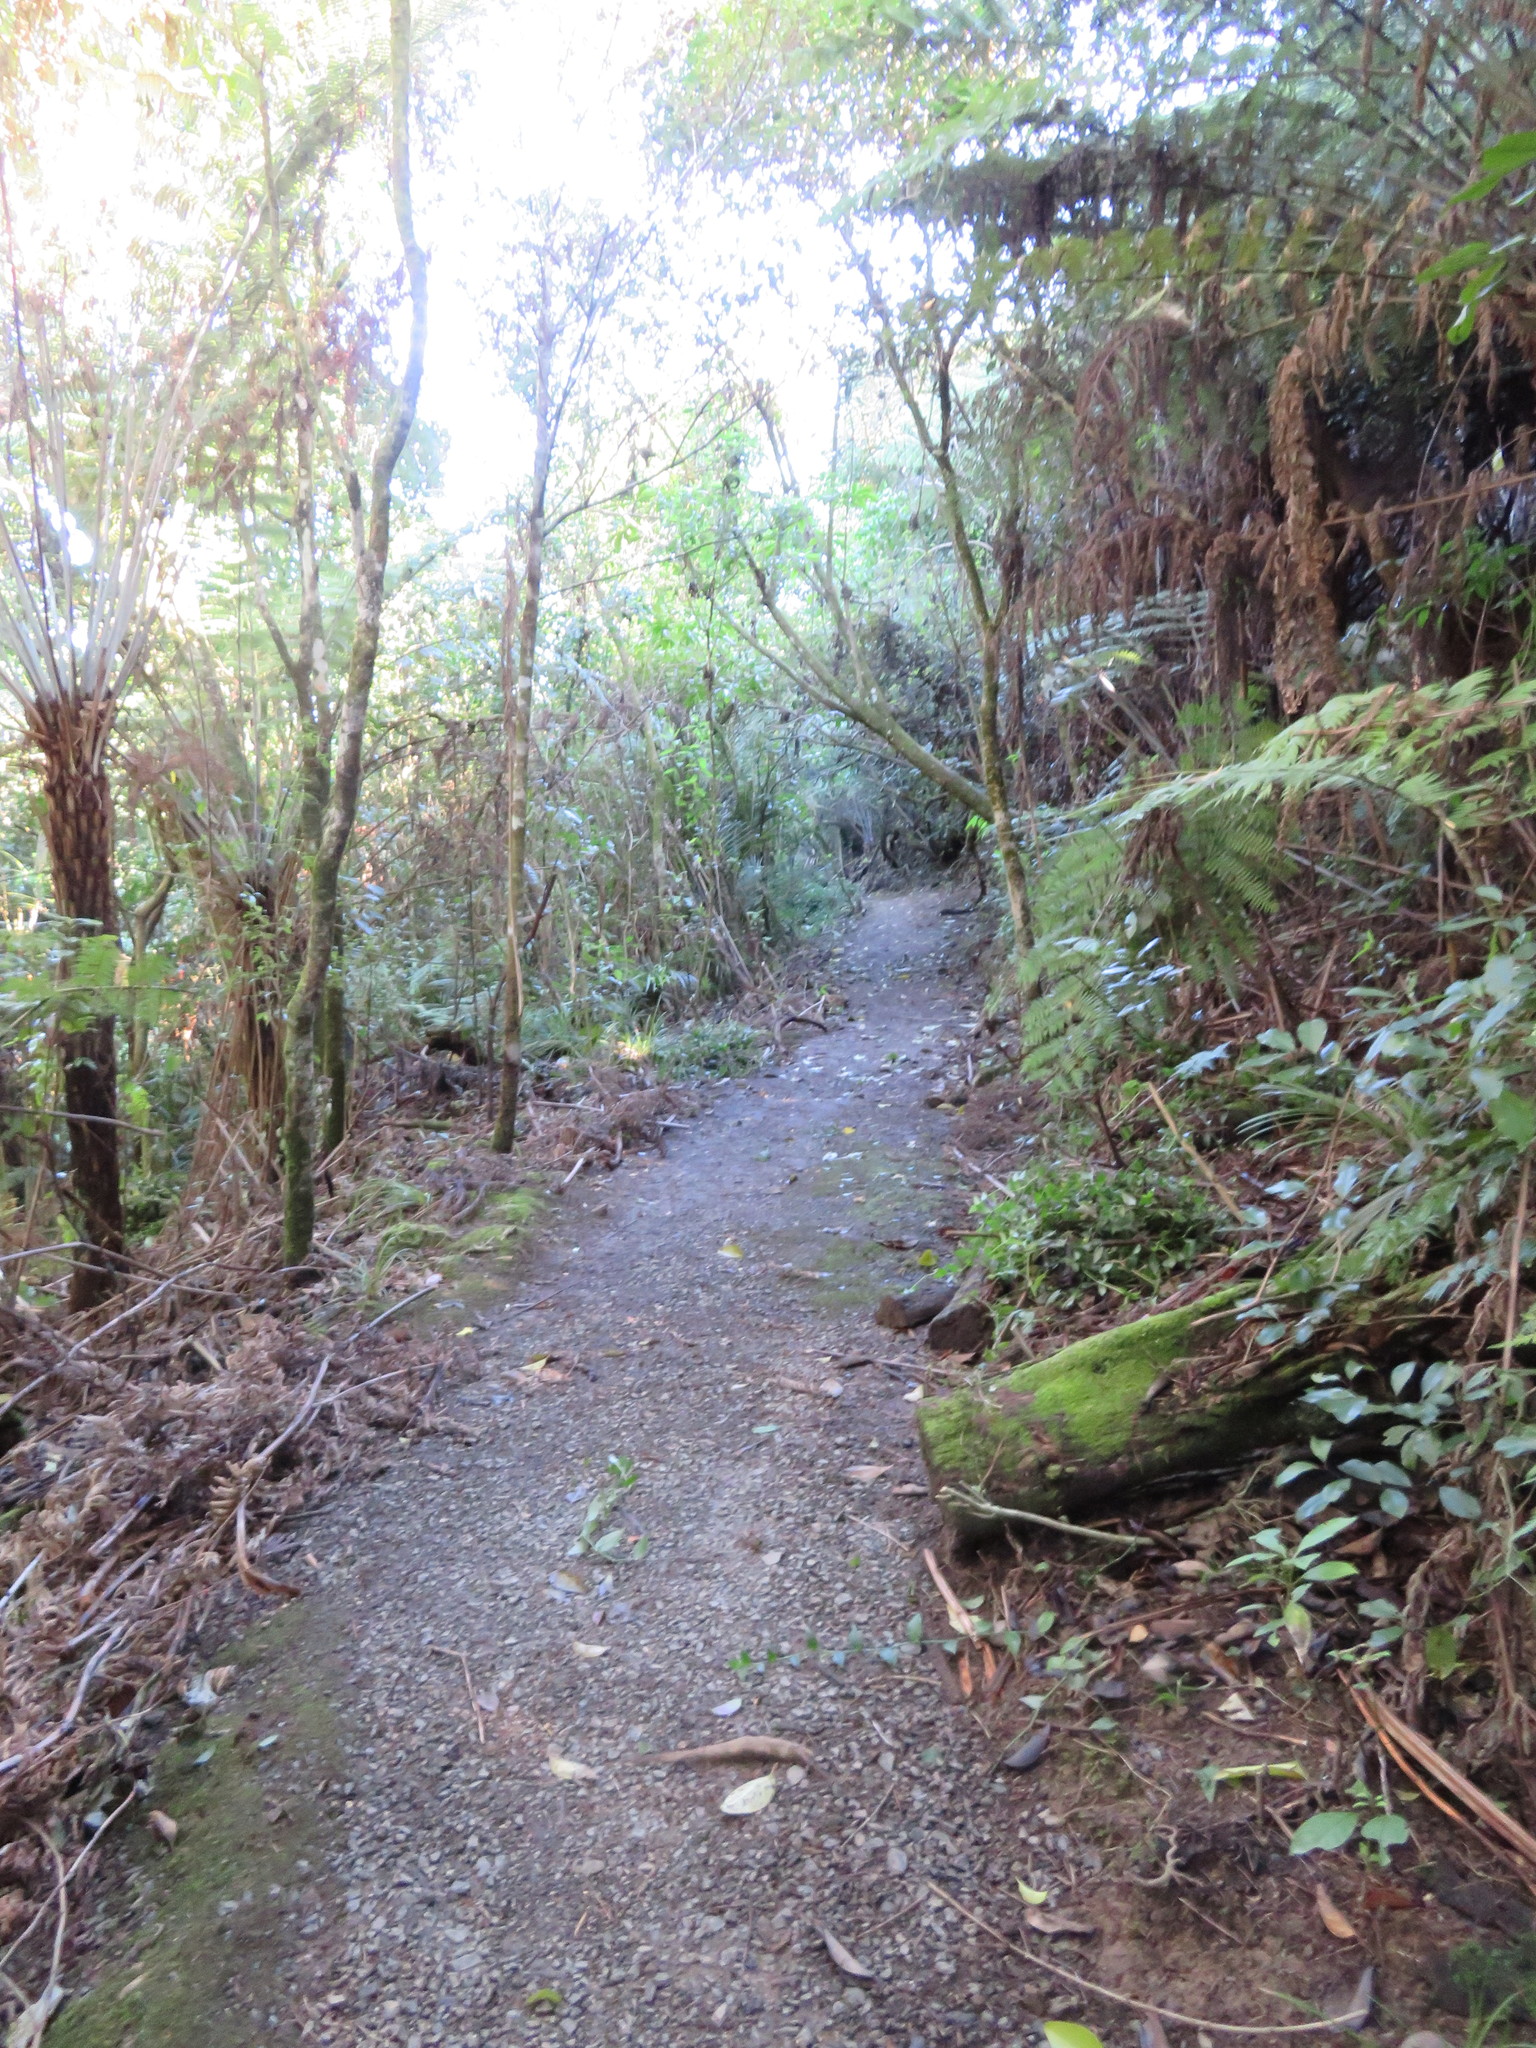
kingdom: Plantae
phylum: Tracheophyta
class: Liliopsida
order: Commelinales
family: Commelinaceae
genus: Tradescantia
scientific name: Tradescantia fluminensis
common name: Wandering-jew
